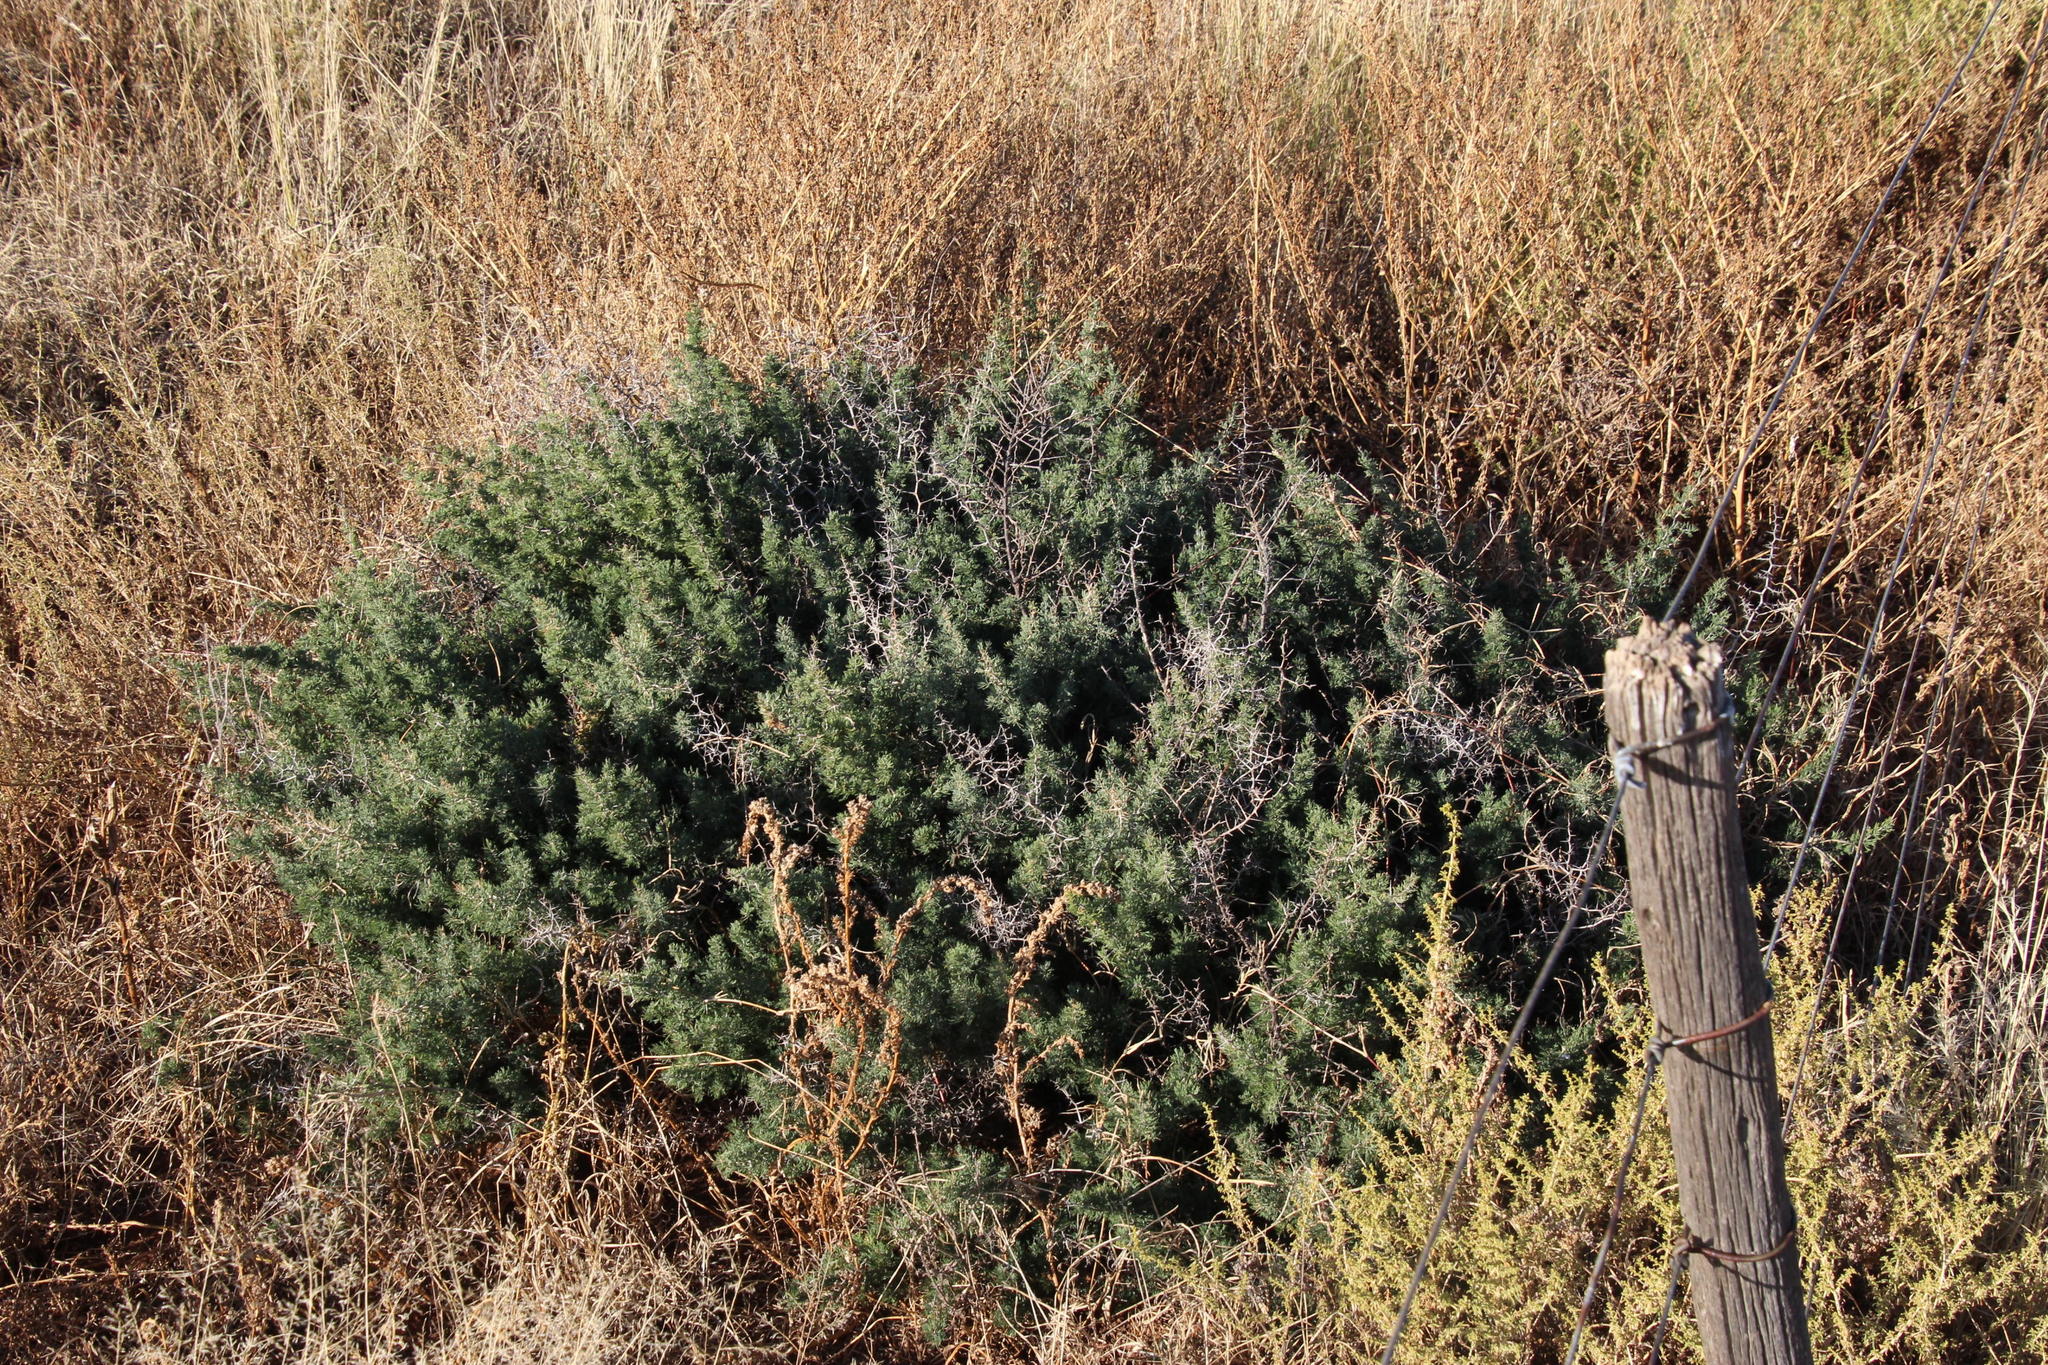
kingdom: Plantae
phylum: Tracheophyta
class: Liliopsida
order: Asparagales
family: Asparagaceae
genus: Asparagus
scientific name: Asparagus suaveolens
